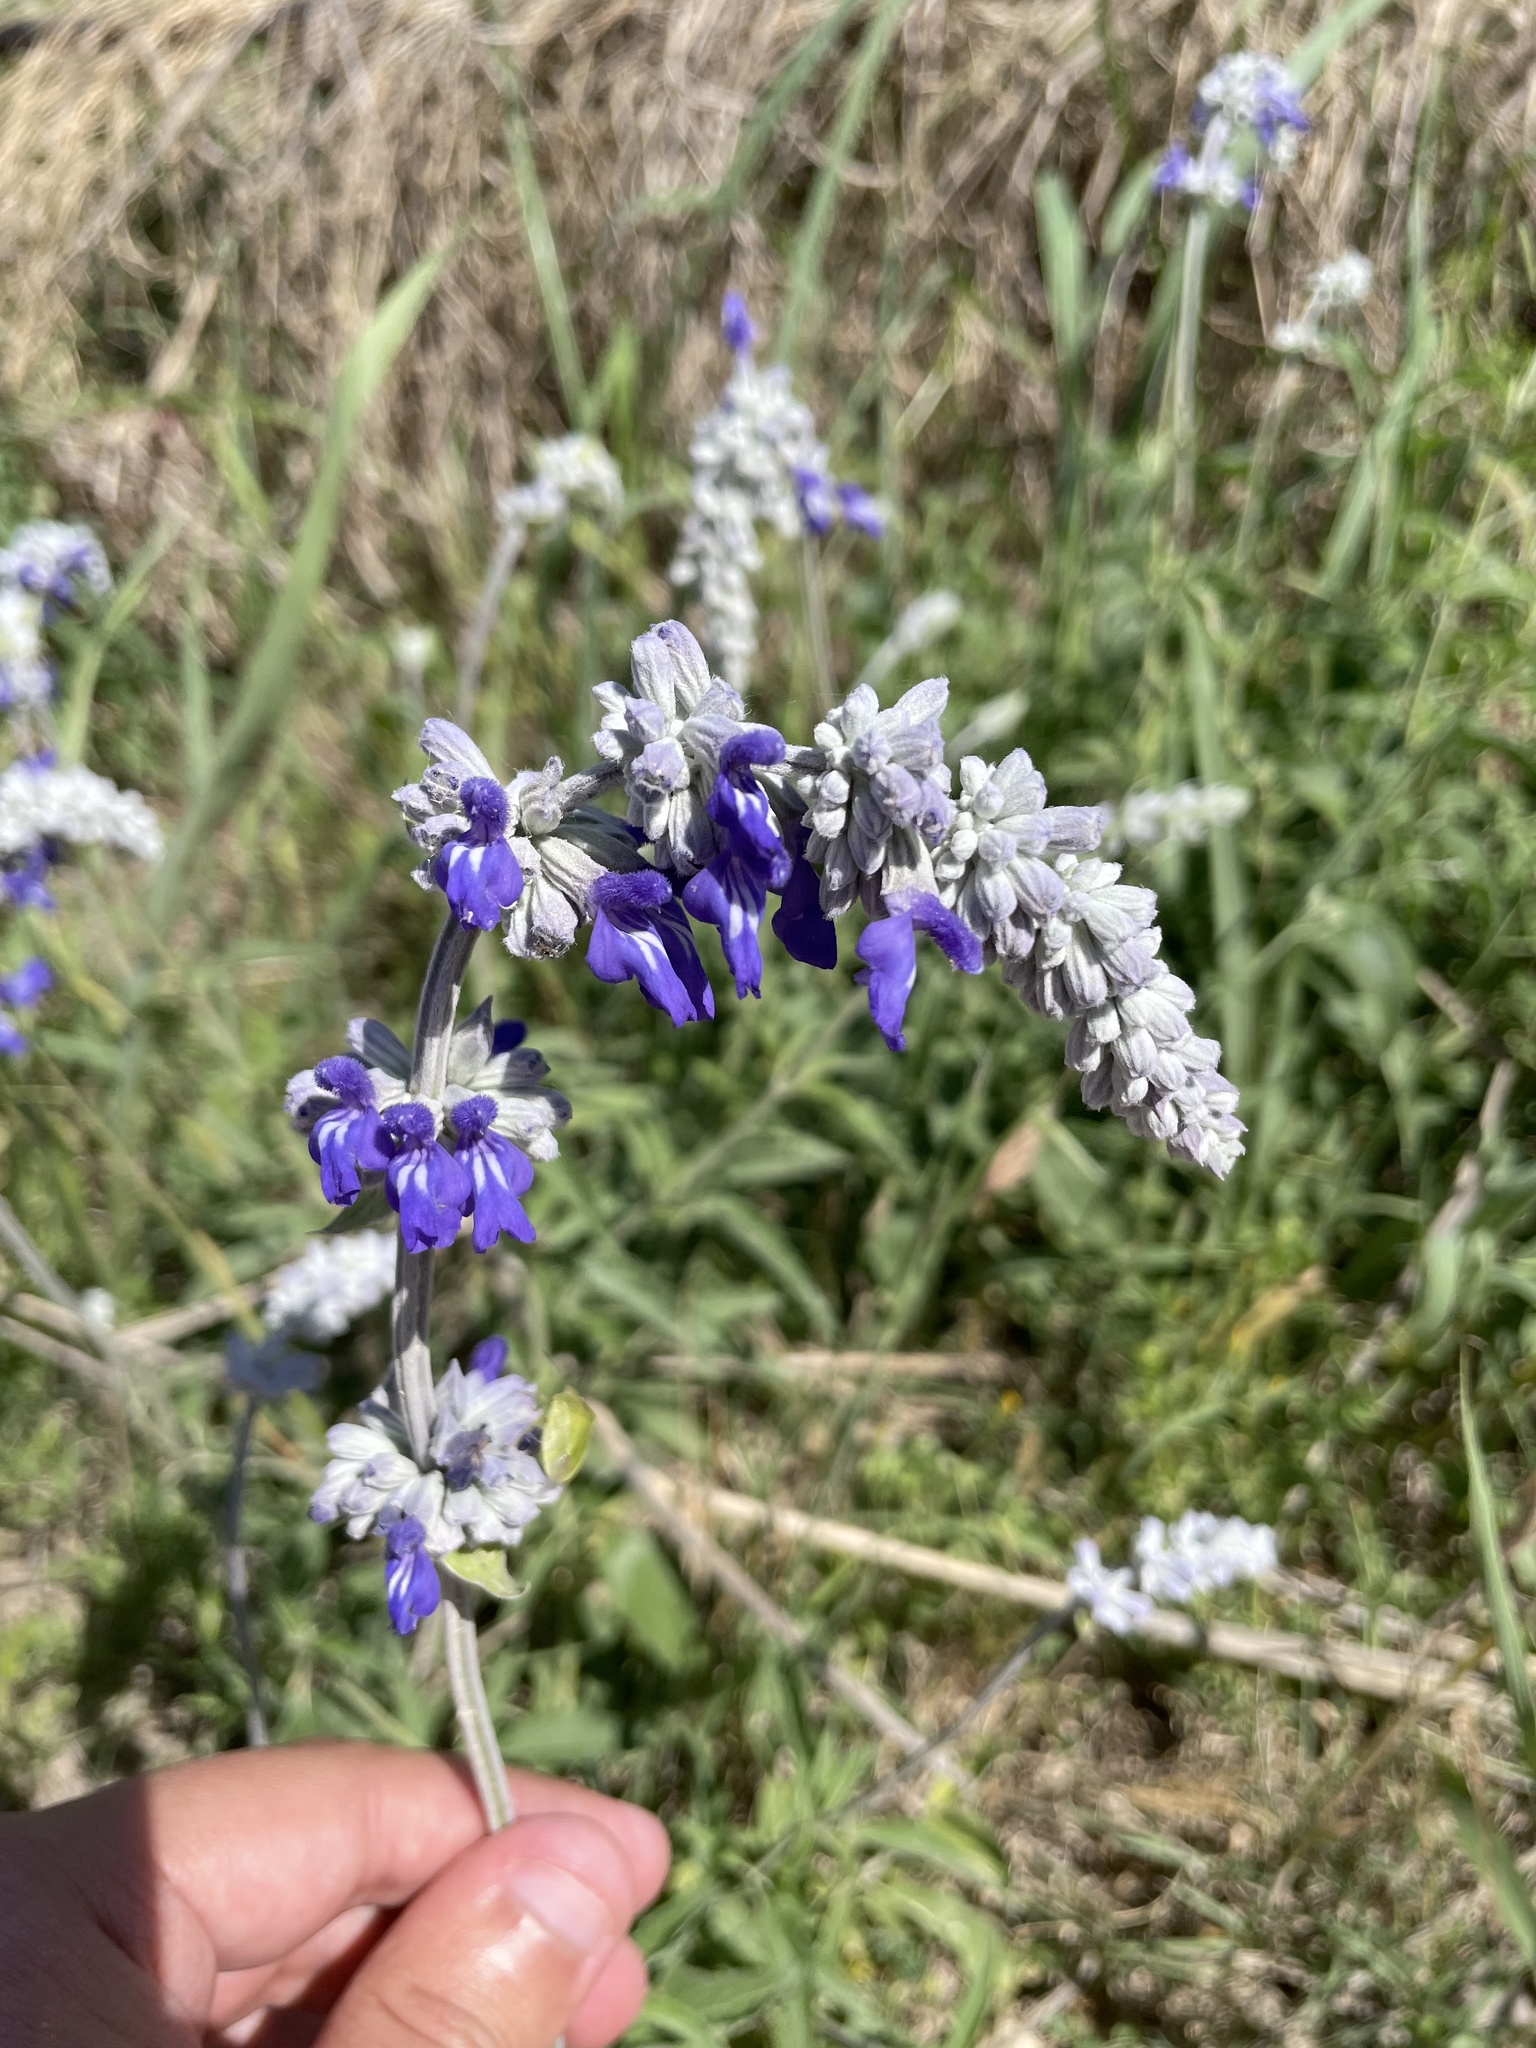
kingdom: Plantae
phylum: Tracheophyta
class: Magnoliopsida
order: Lamiales
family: Lamiaceae
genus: Salvia
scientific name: Salvia farinacea
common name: Mealy sage
